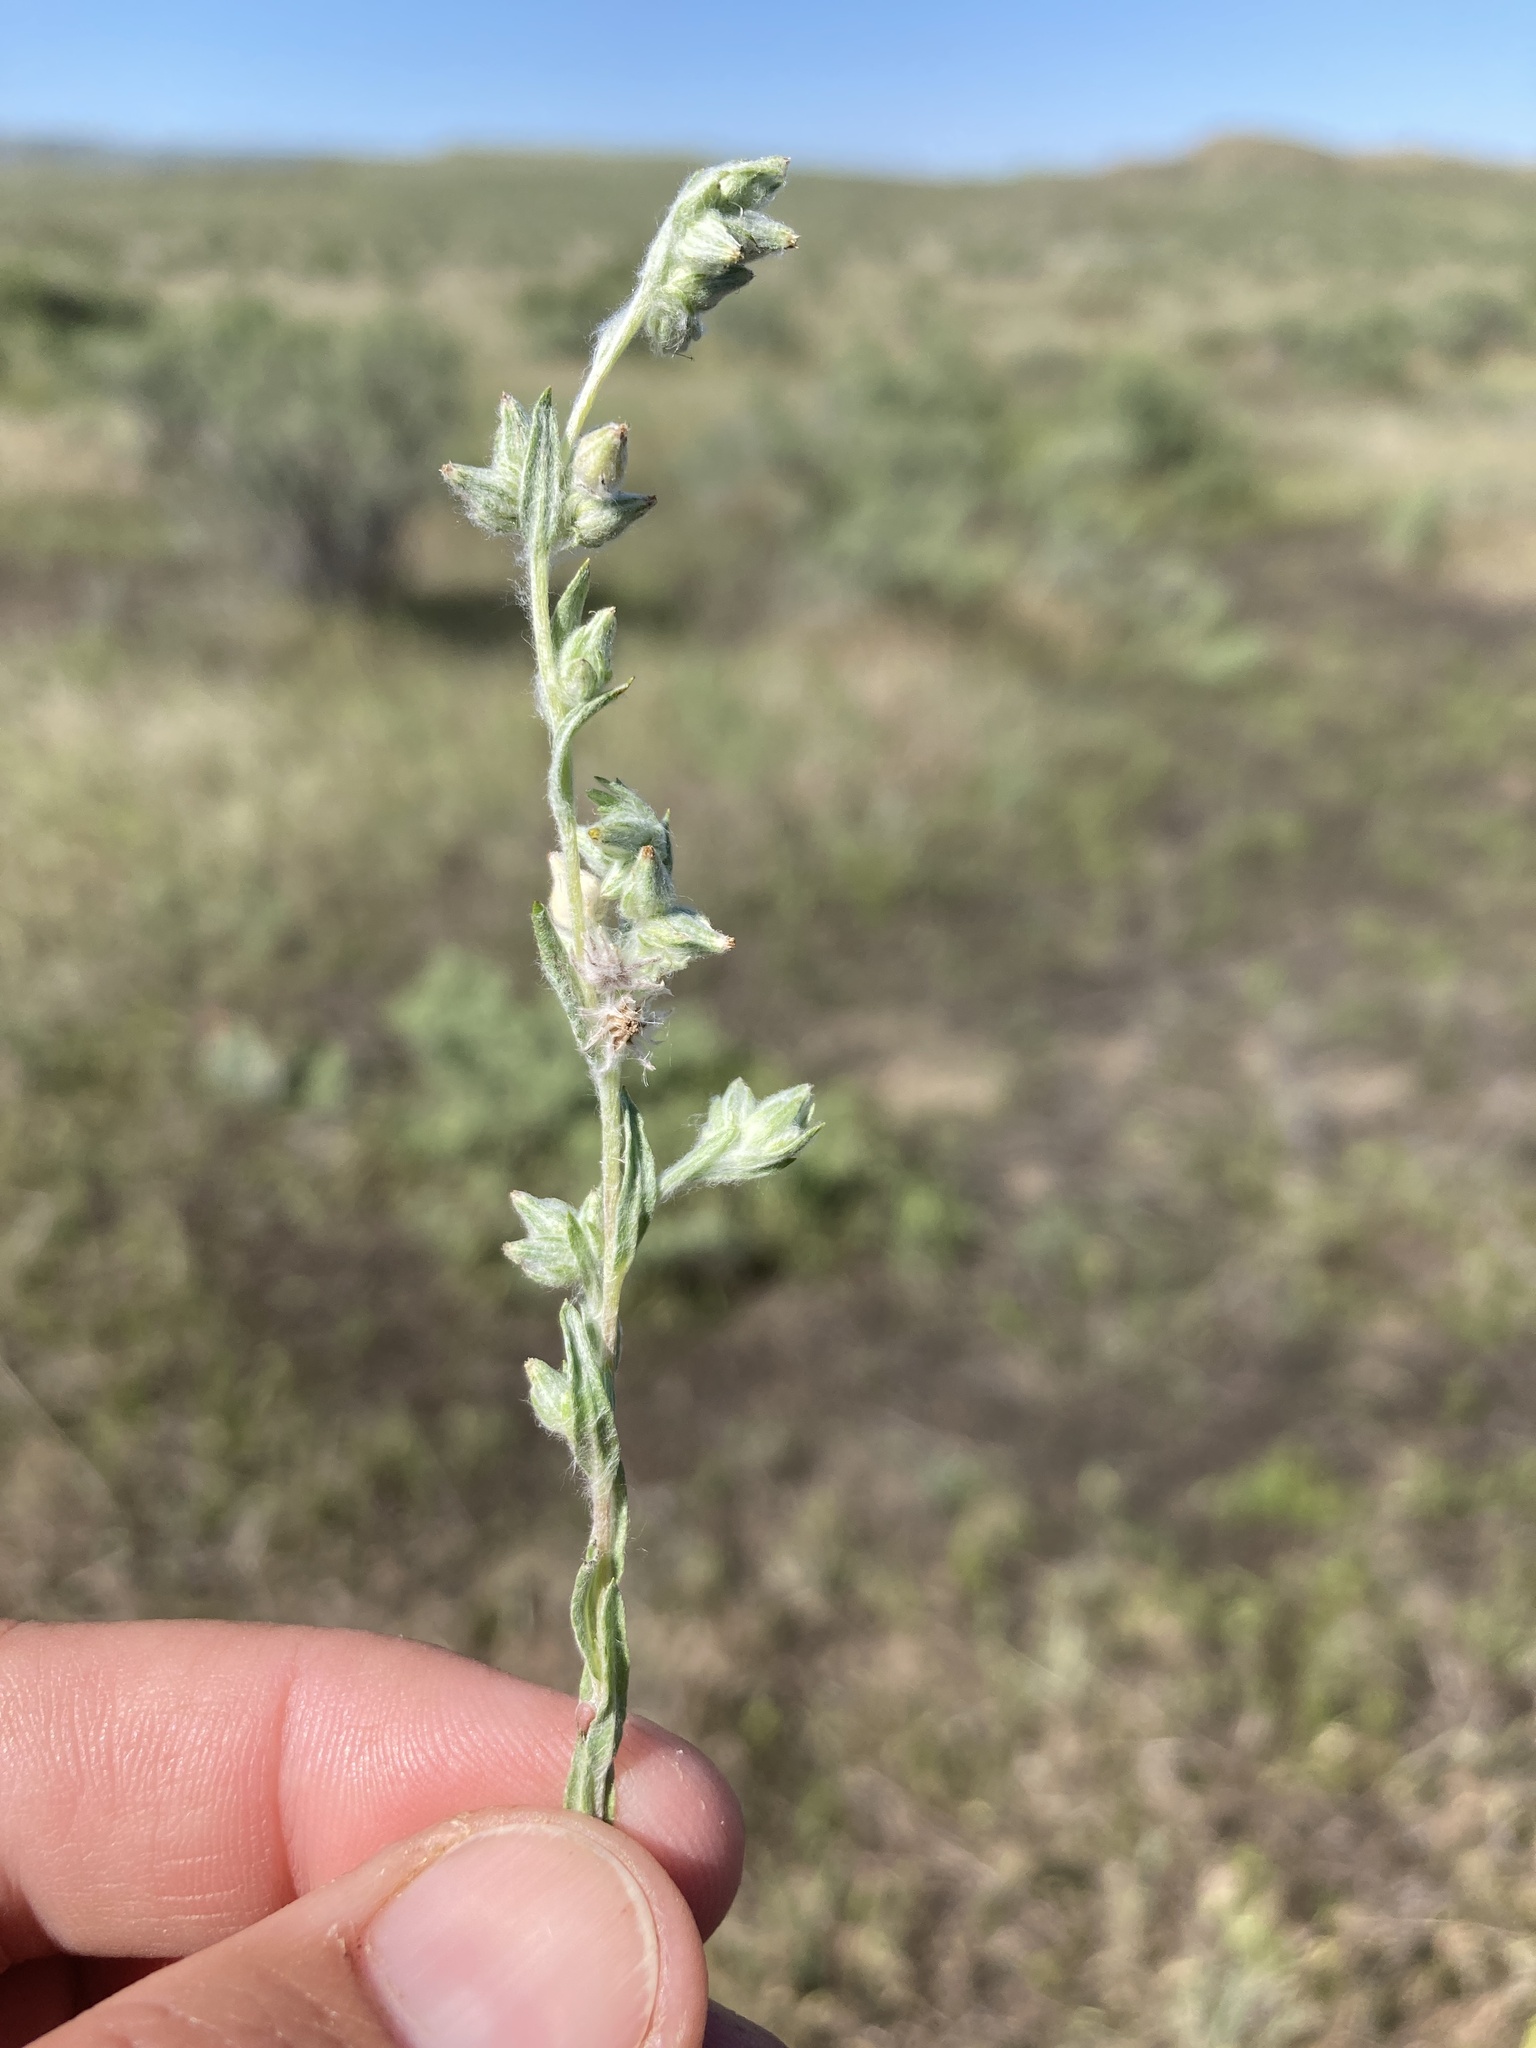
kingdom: Plantae
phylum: Tracheophyta
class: Magnoliopsida
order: Asterales
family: Asteraceae
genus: Filago
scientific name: Filago arvensis
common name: Field cudweed
